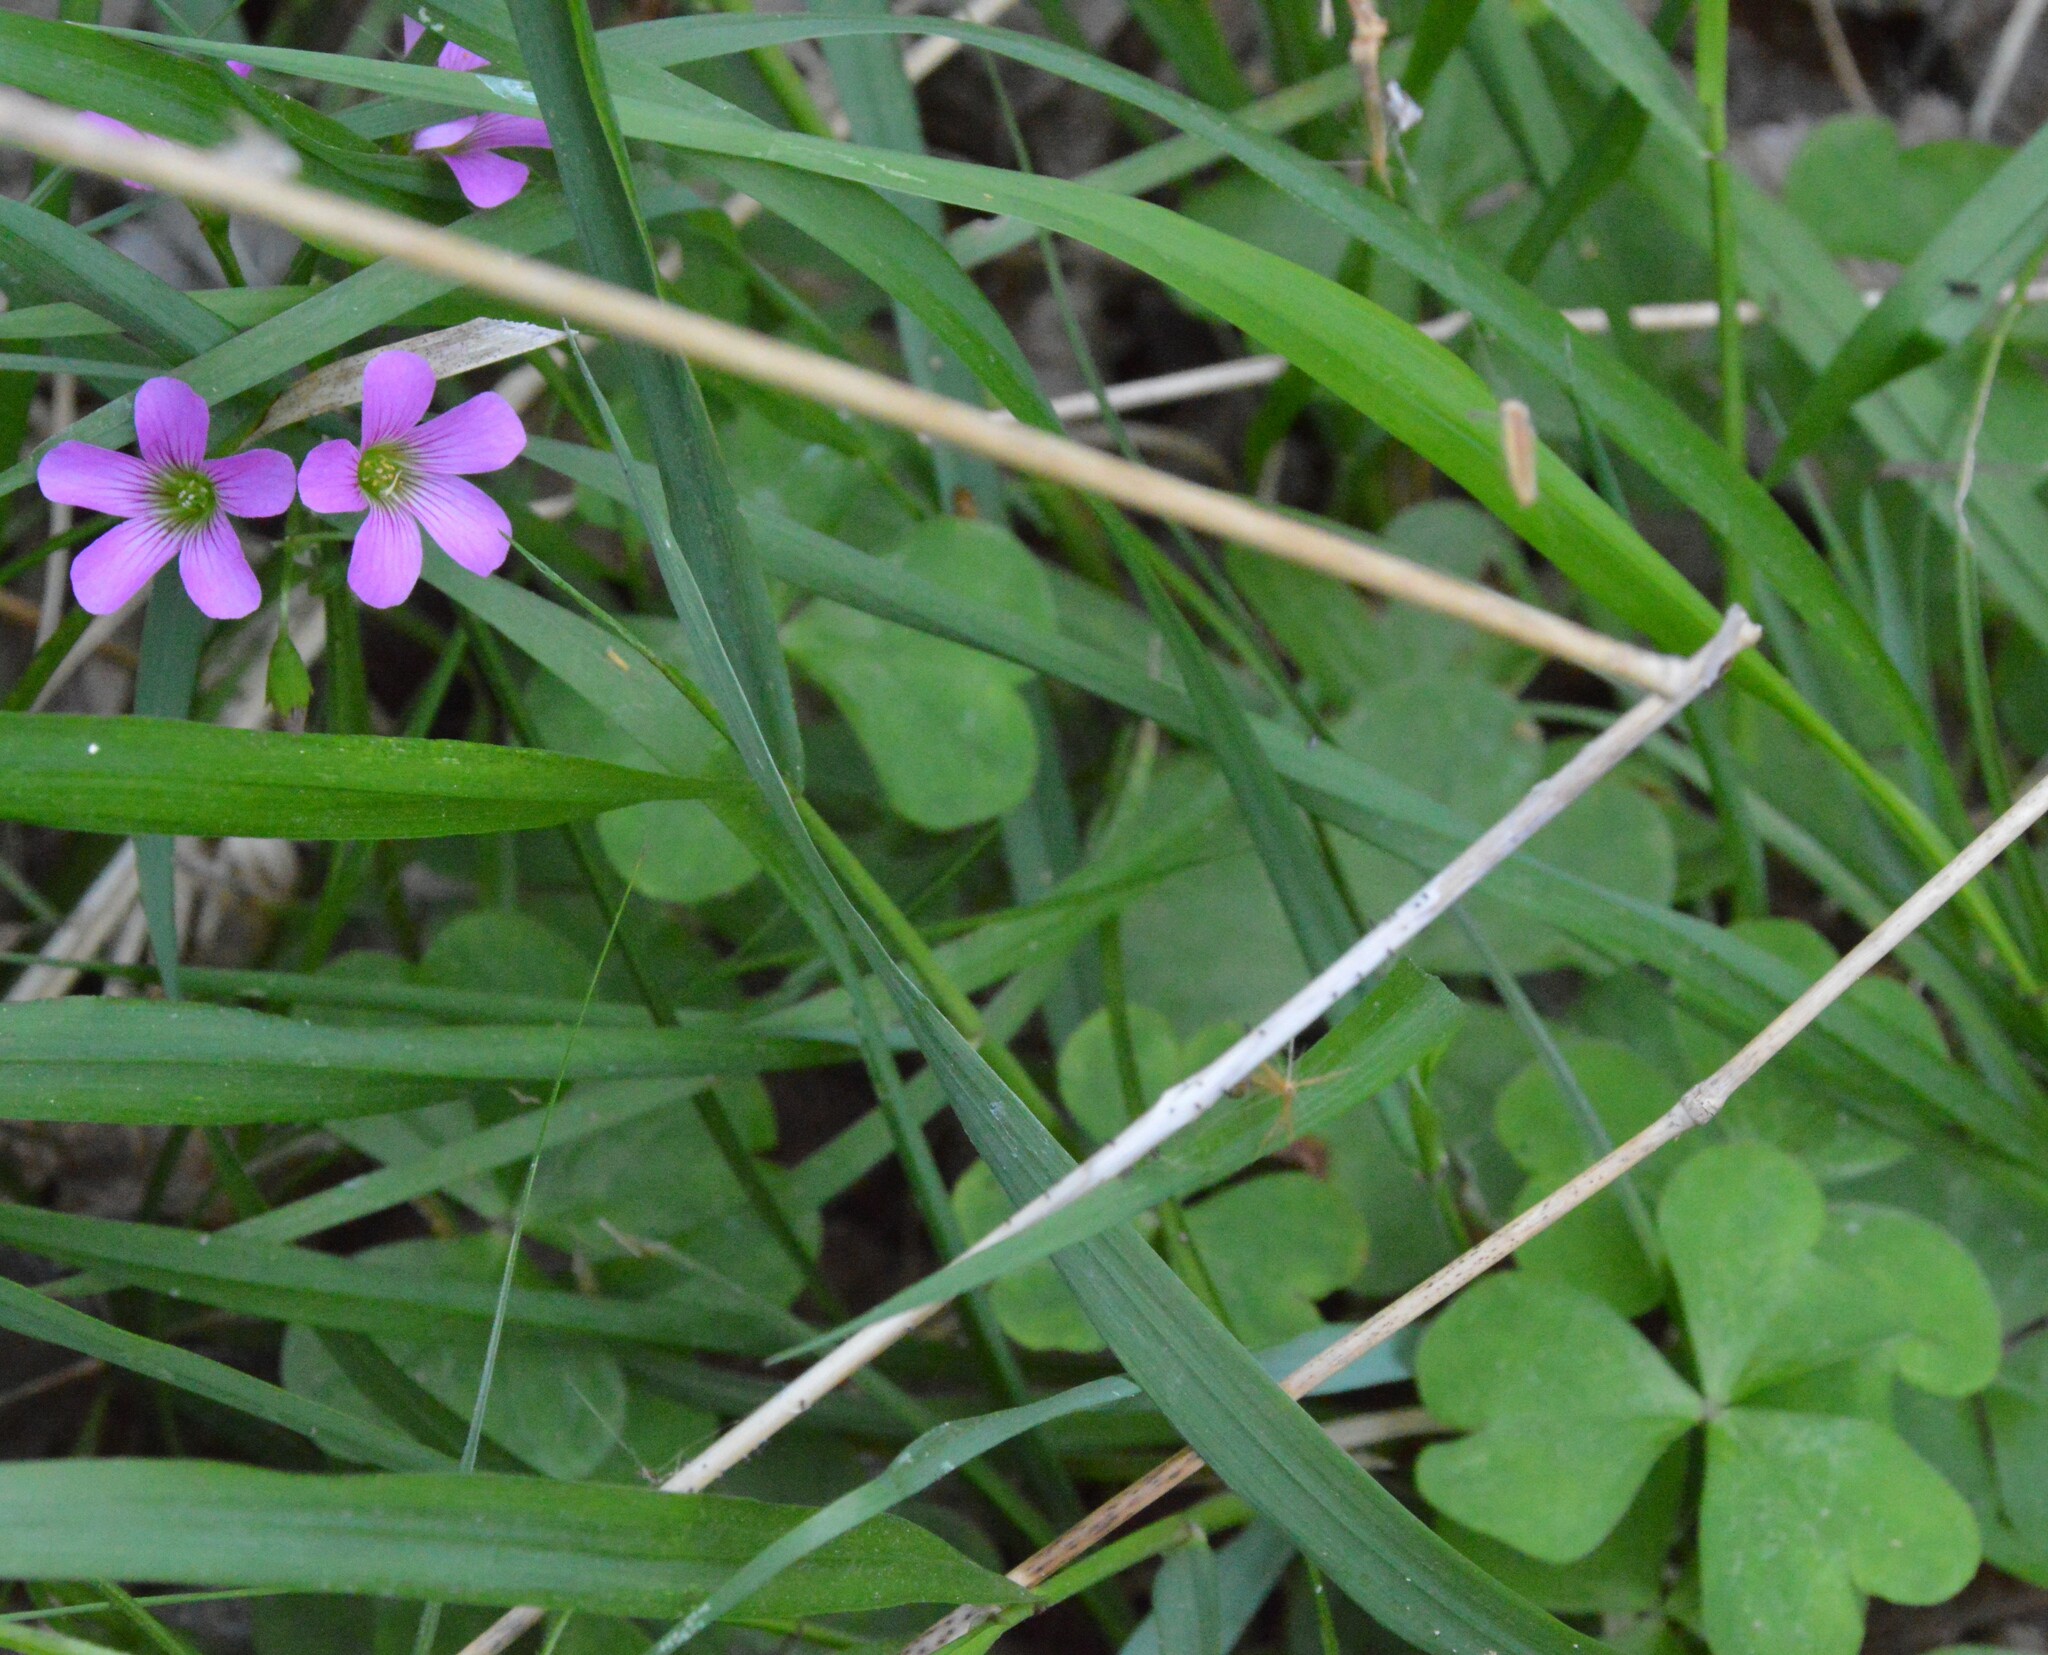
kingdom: Plantae
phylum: Tracheophyta
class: Magnoliopsida
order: Oxalidales
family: Oxalidaceae
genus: Oxalis
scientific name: Oxalis debilis
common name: Large-flowered pink-sorrel
